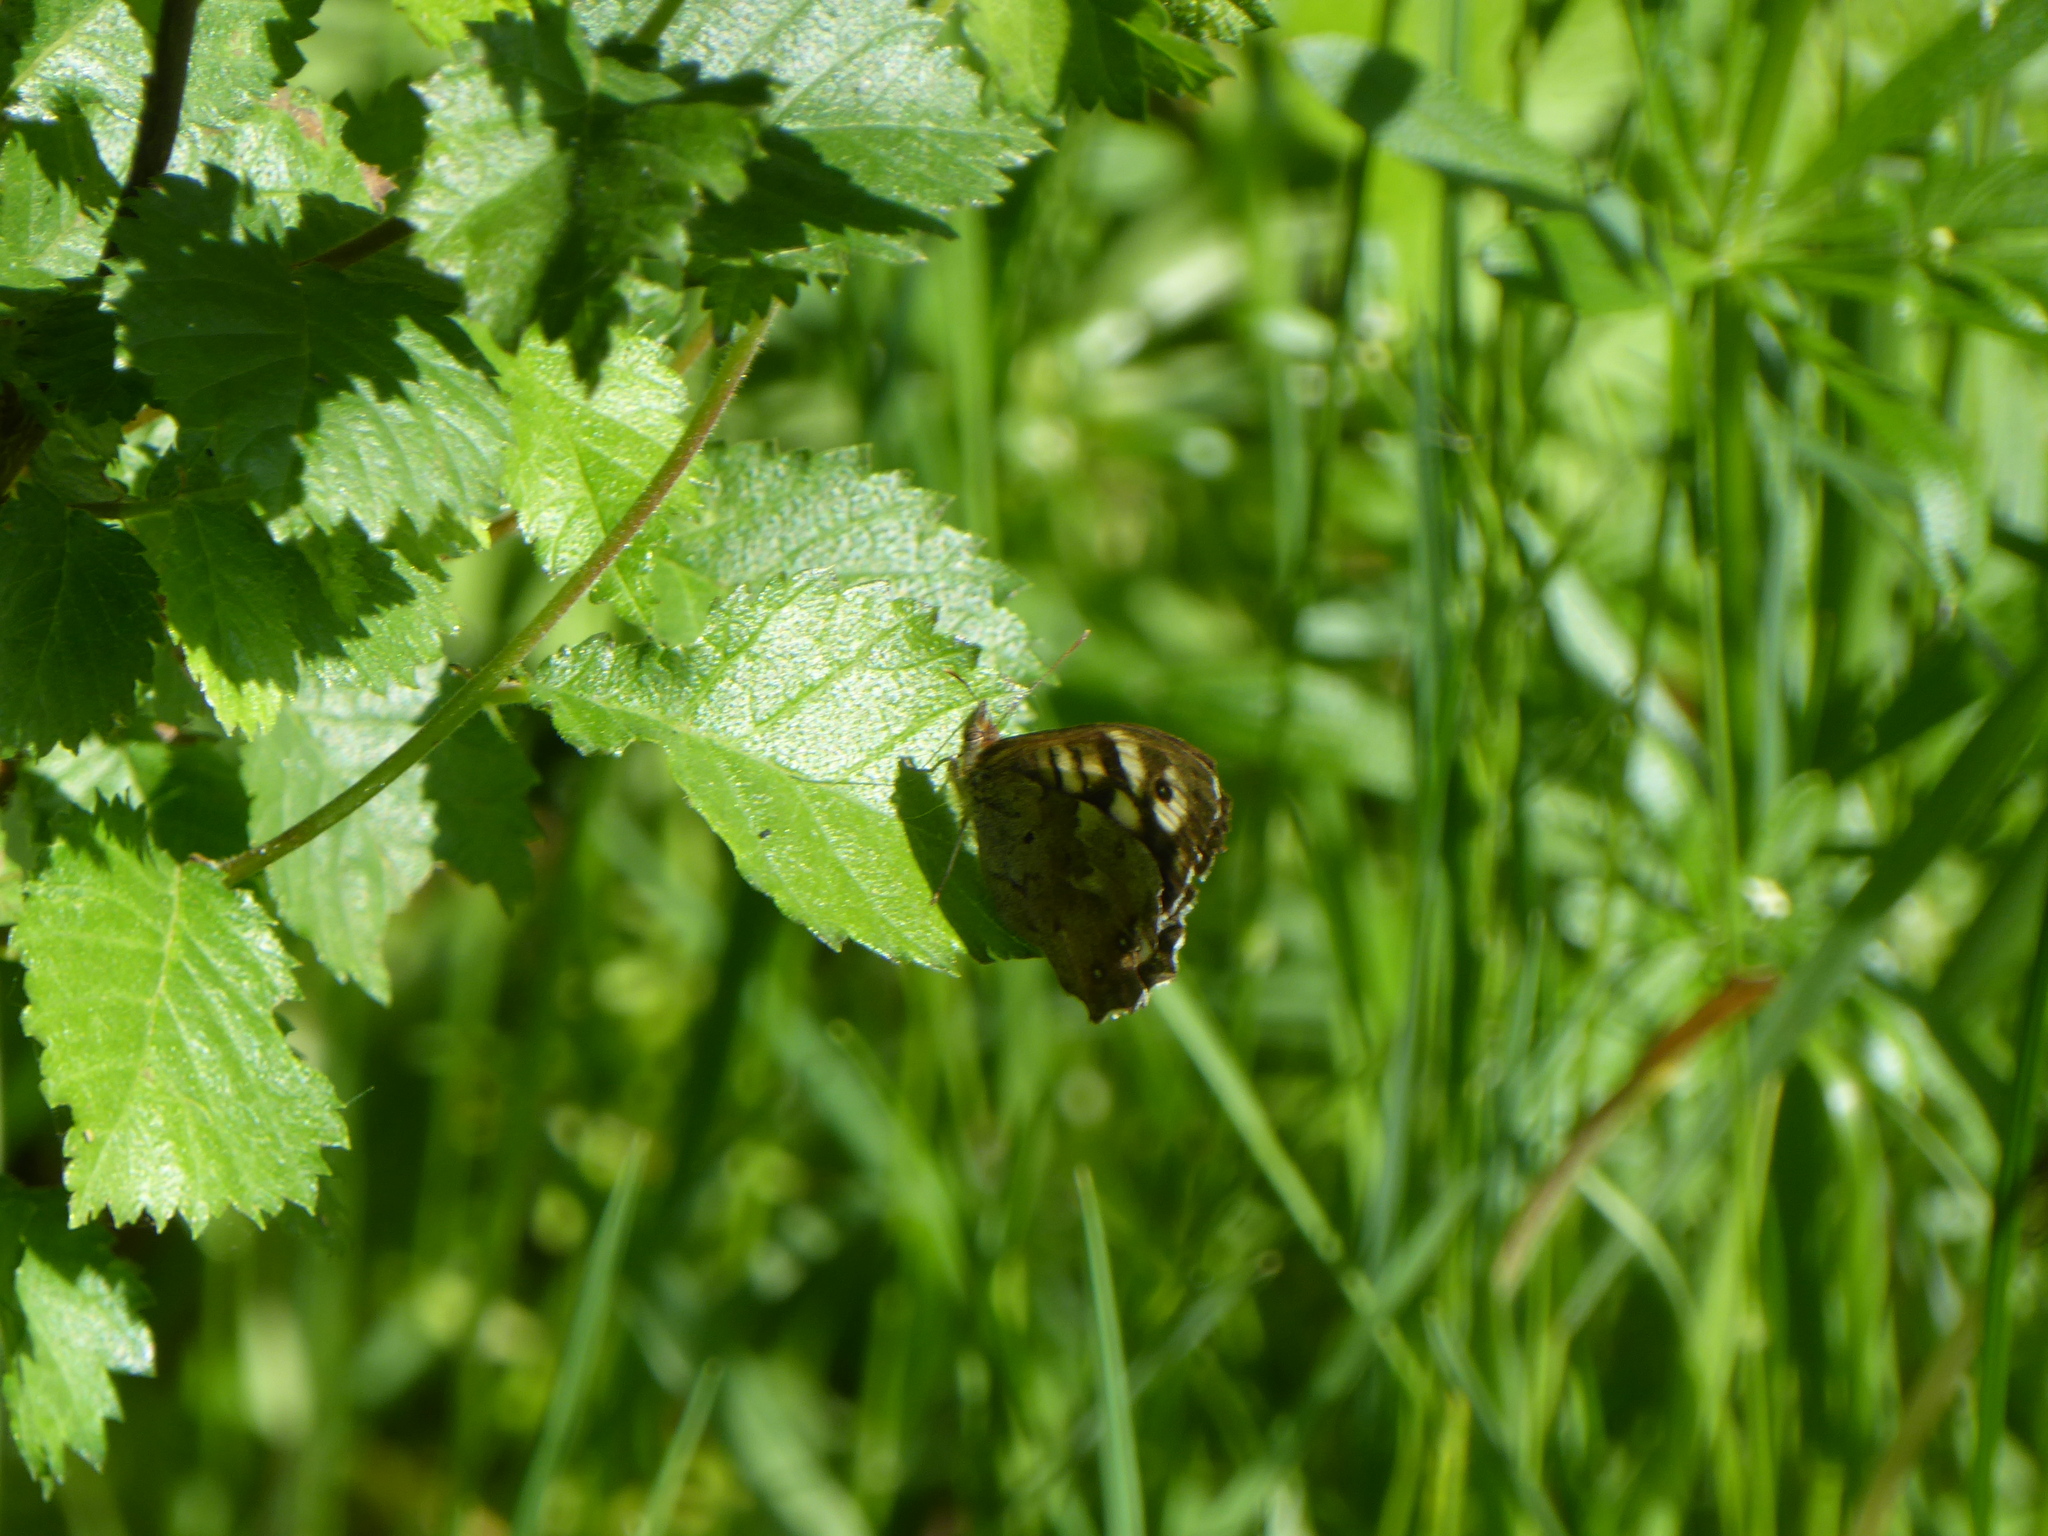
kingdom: Animalia
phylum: Arthropoda
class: Insecta
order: Lepidoptera
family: Nymphalidae
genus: Pararge
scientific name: Pararge aegeria
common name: Speckled wood
